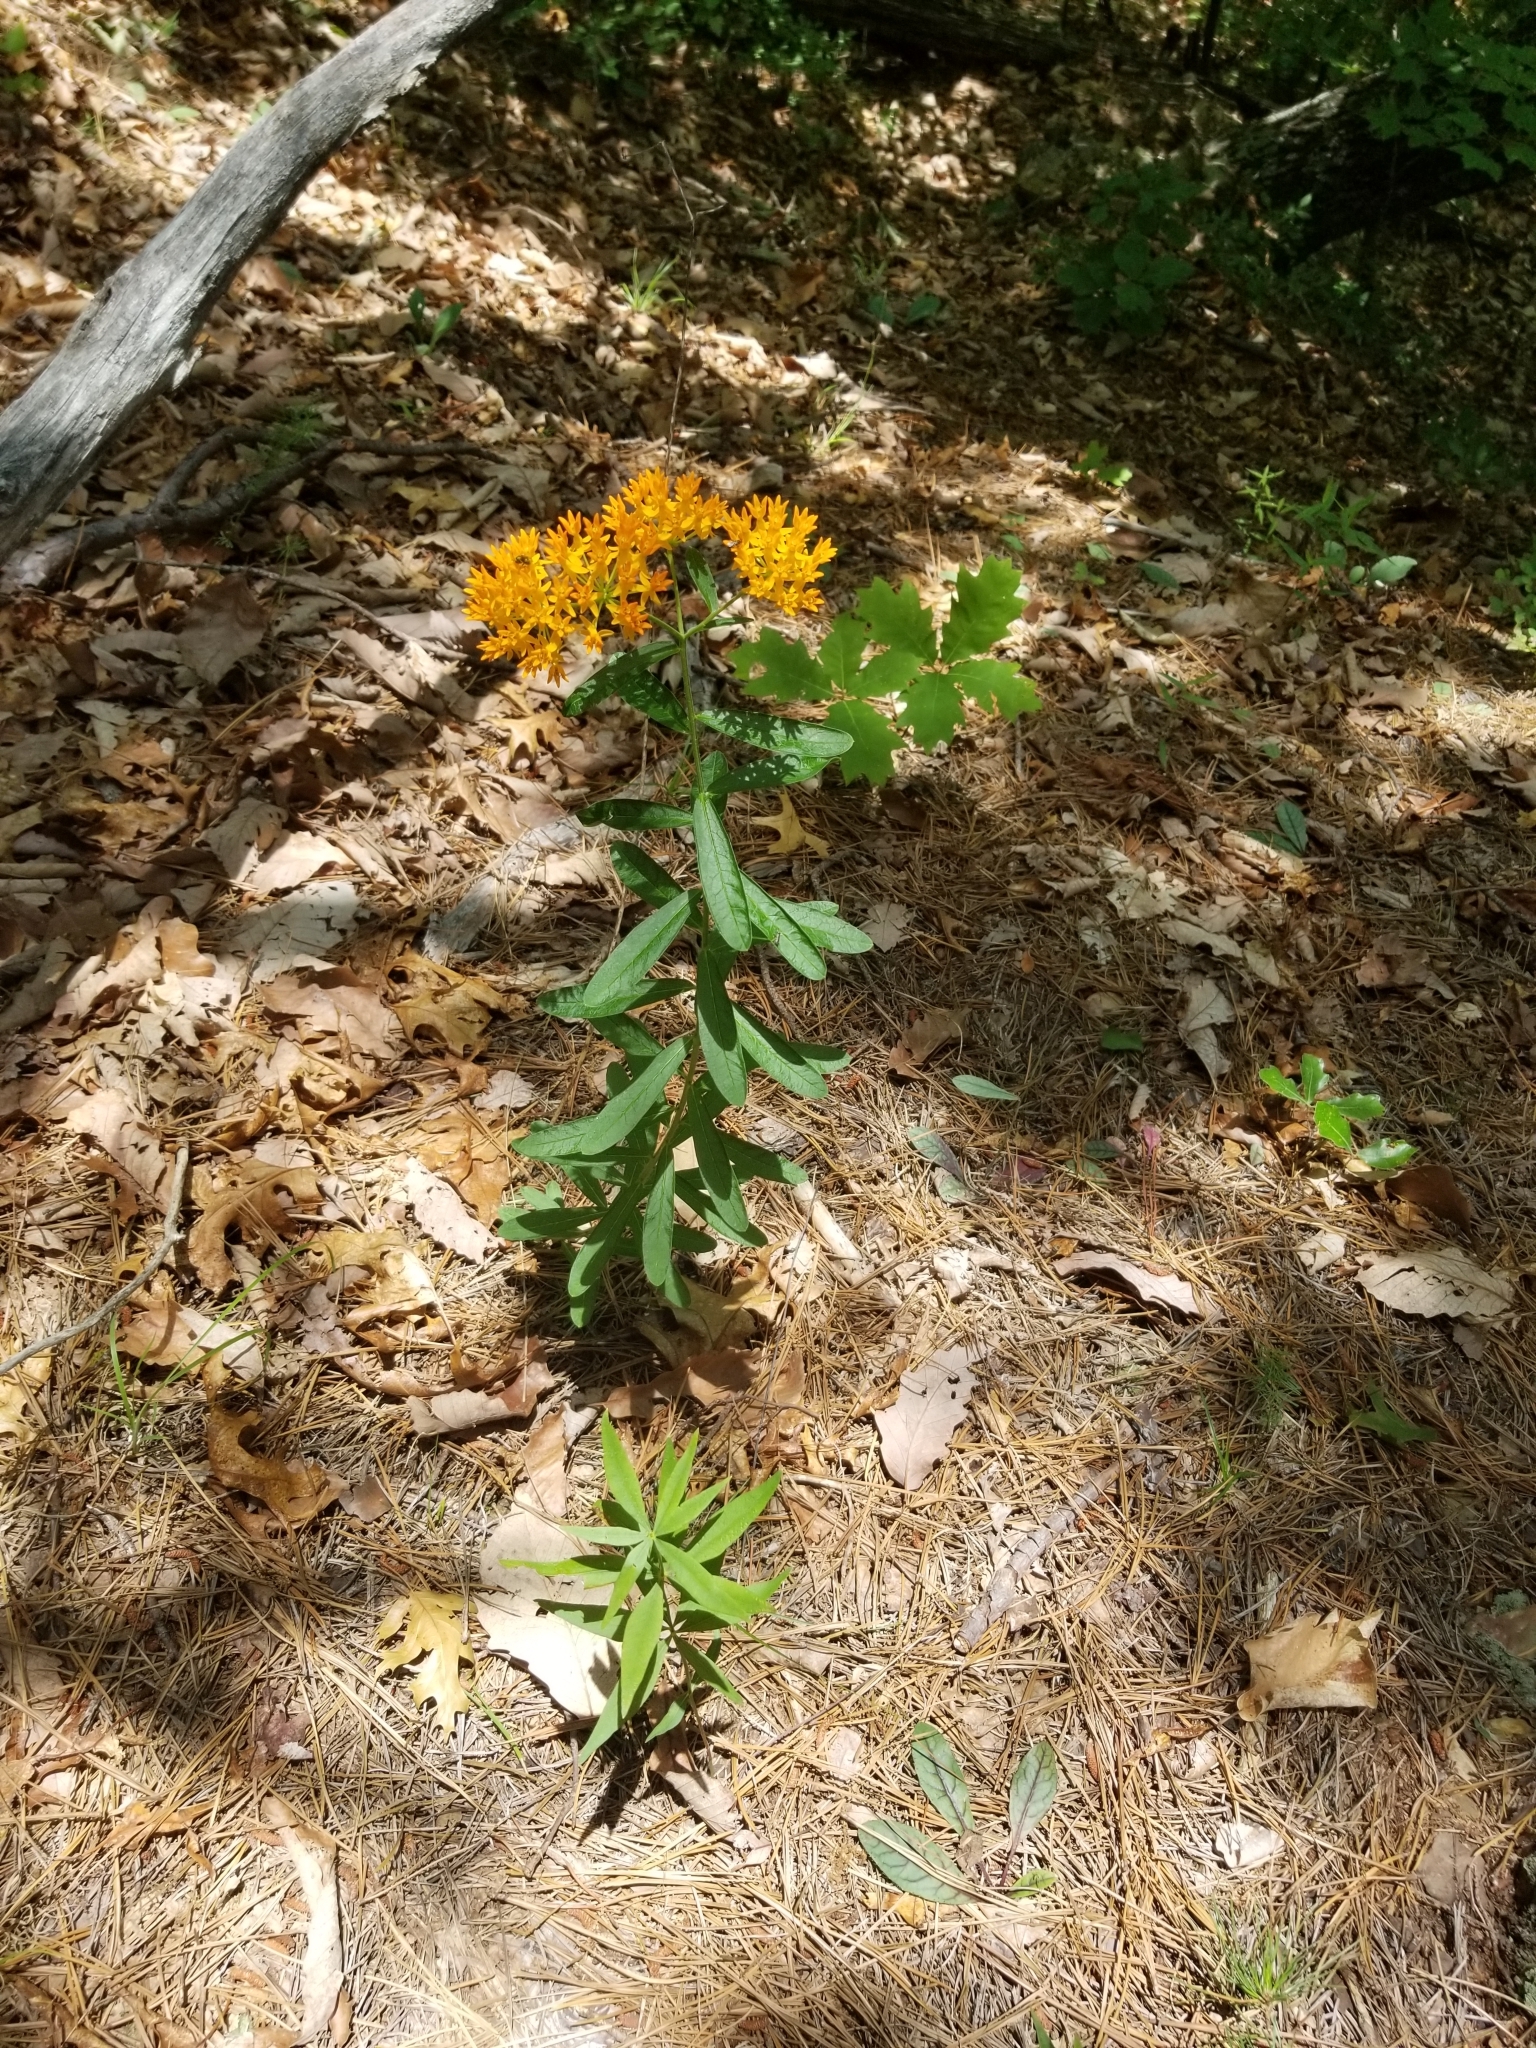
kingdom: Plantae
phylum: Tracheophyta
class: Magnoliopsida
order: Gentianales
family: Apocynaceae
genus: Asclepias
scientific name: Asclepias tuberosa
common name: Butterfly milkweed
